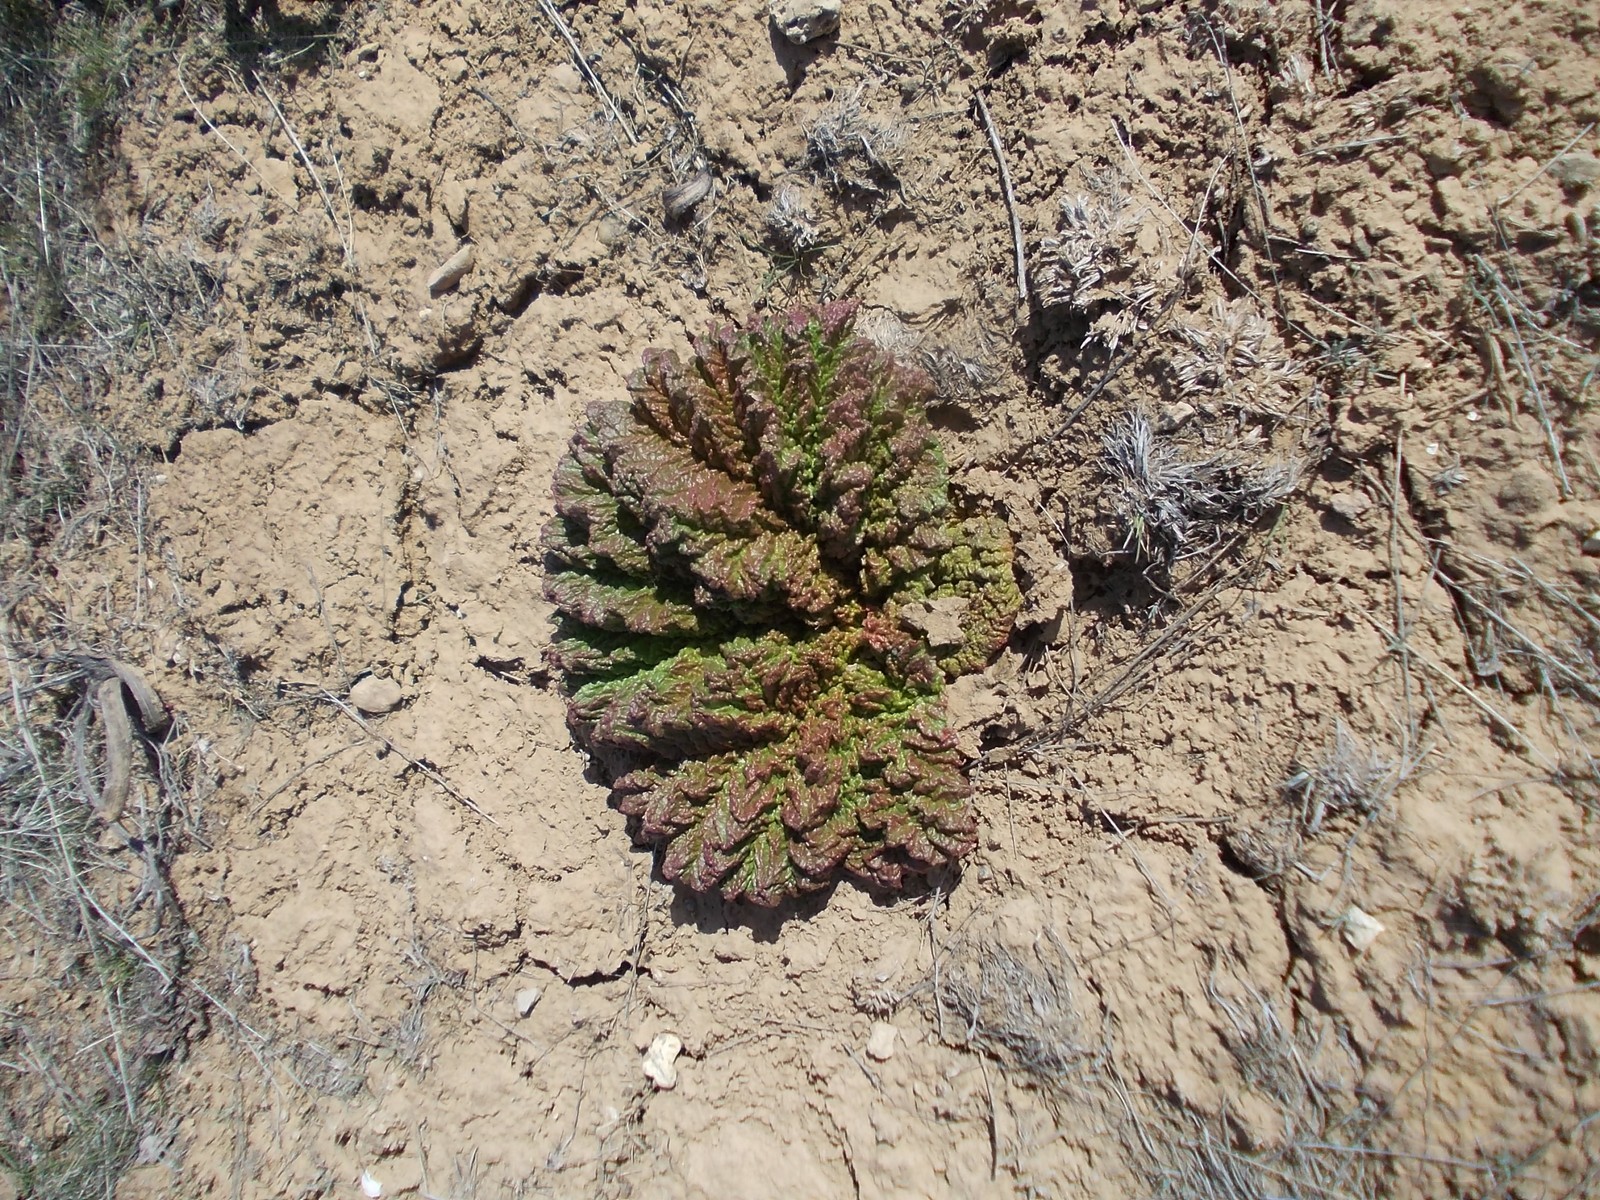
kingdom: Plantae
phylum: Tracheophyta
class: Magnoliopsida
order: Caryophyllales
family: Polygonaceae
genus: Rheum
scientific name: Rheum tataricum
